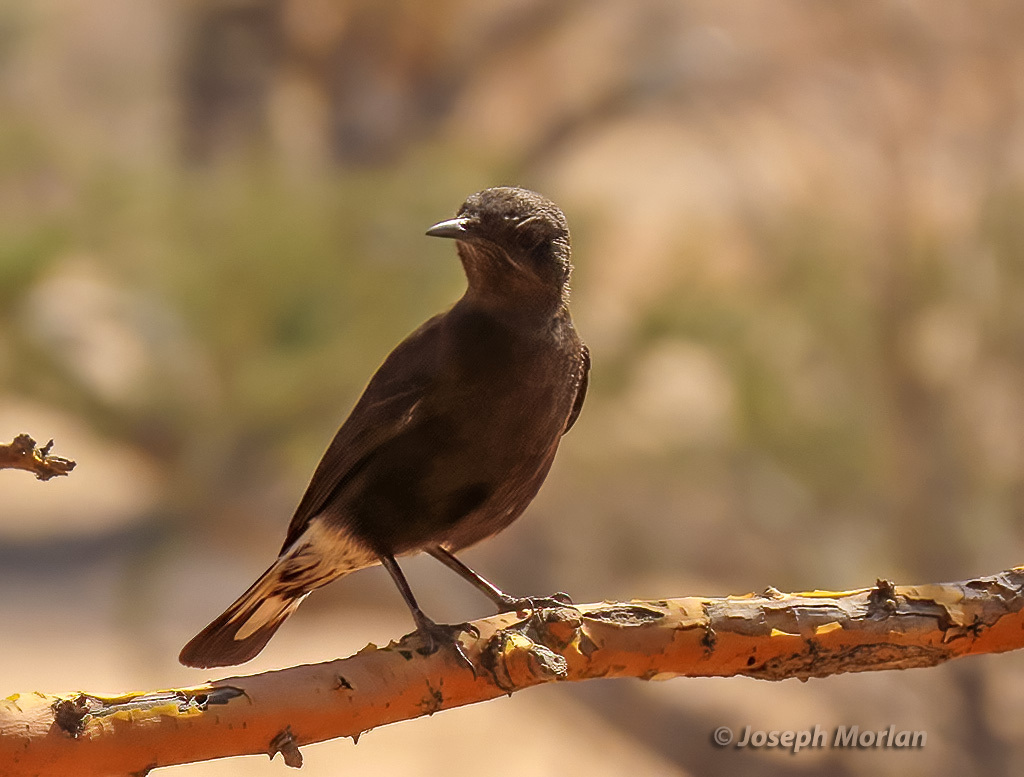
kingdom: Animalia
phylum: Chordata
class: Aves
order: Passeriformes
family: Muscicapidae
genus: Oenanthe
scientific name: Oenanthe monticola
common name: Mountain wheatear
